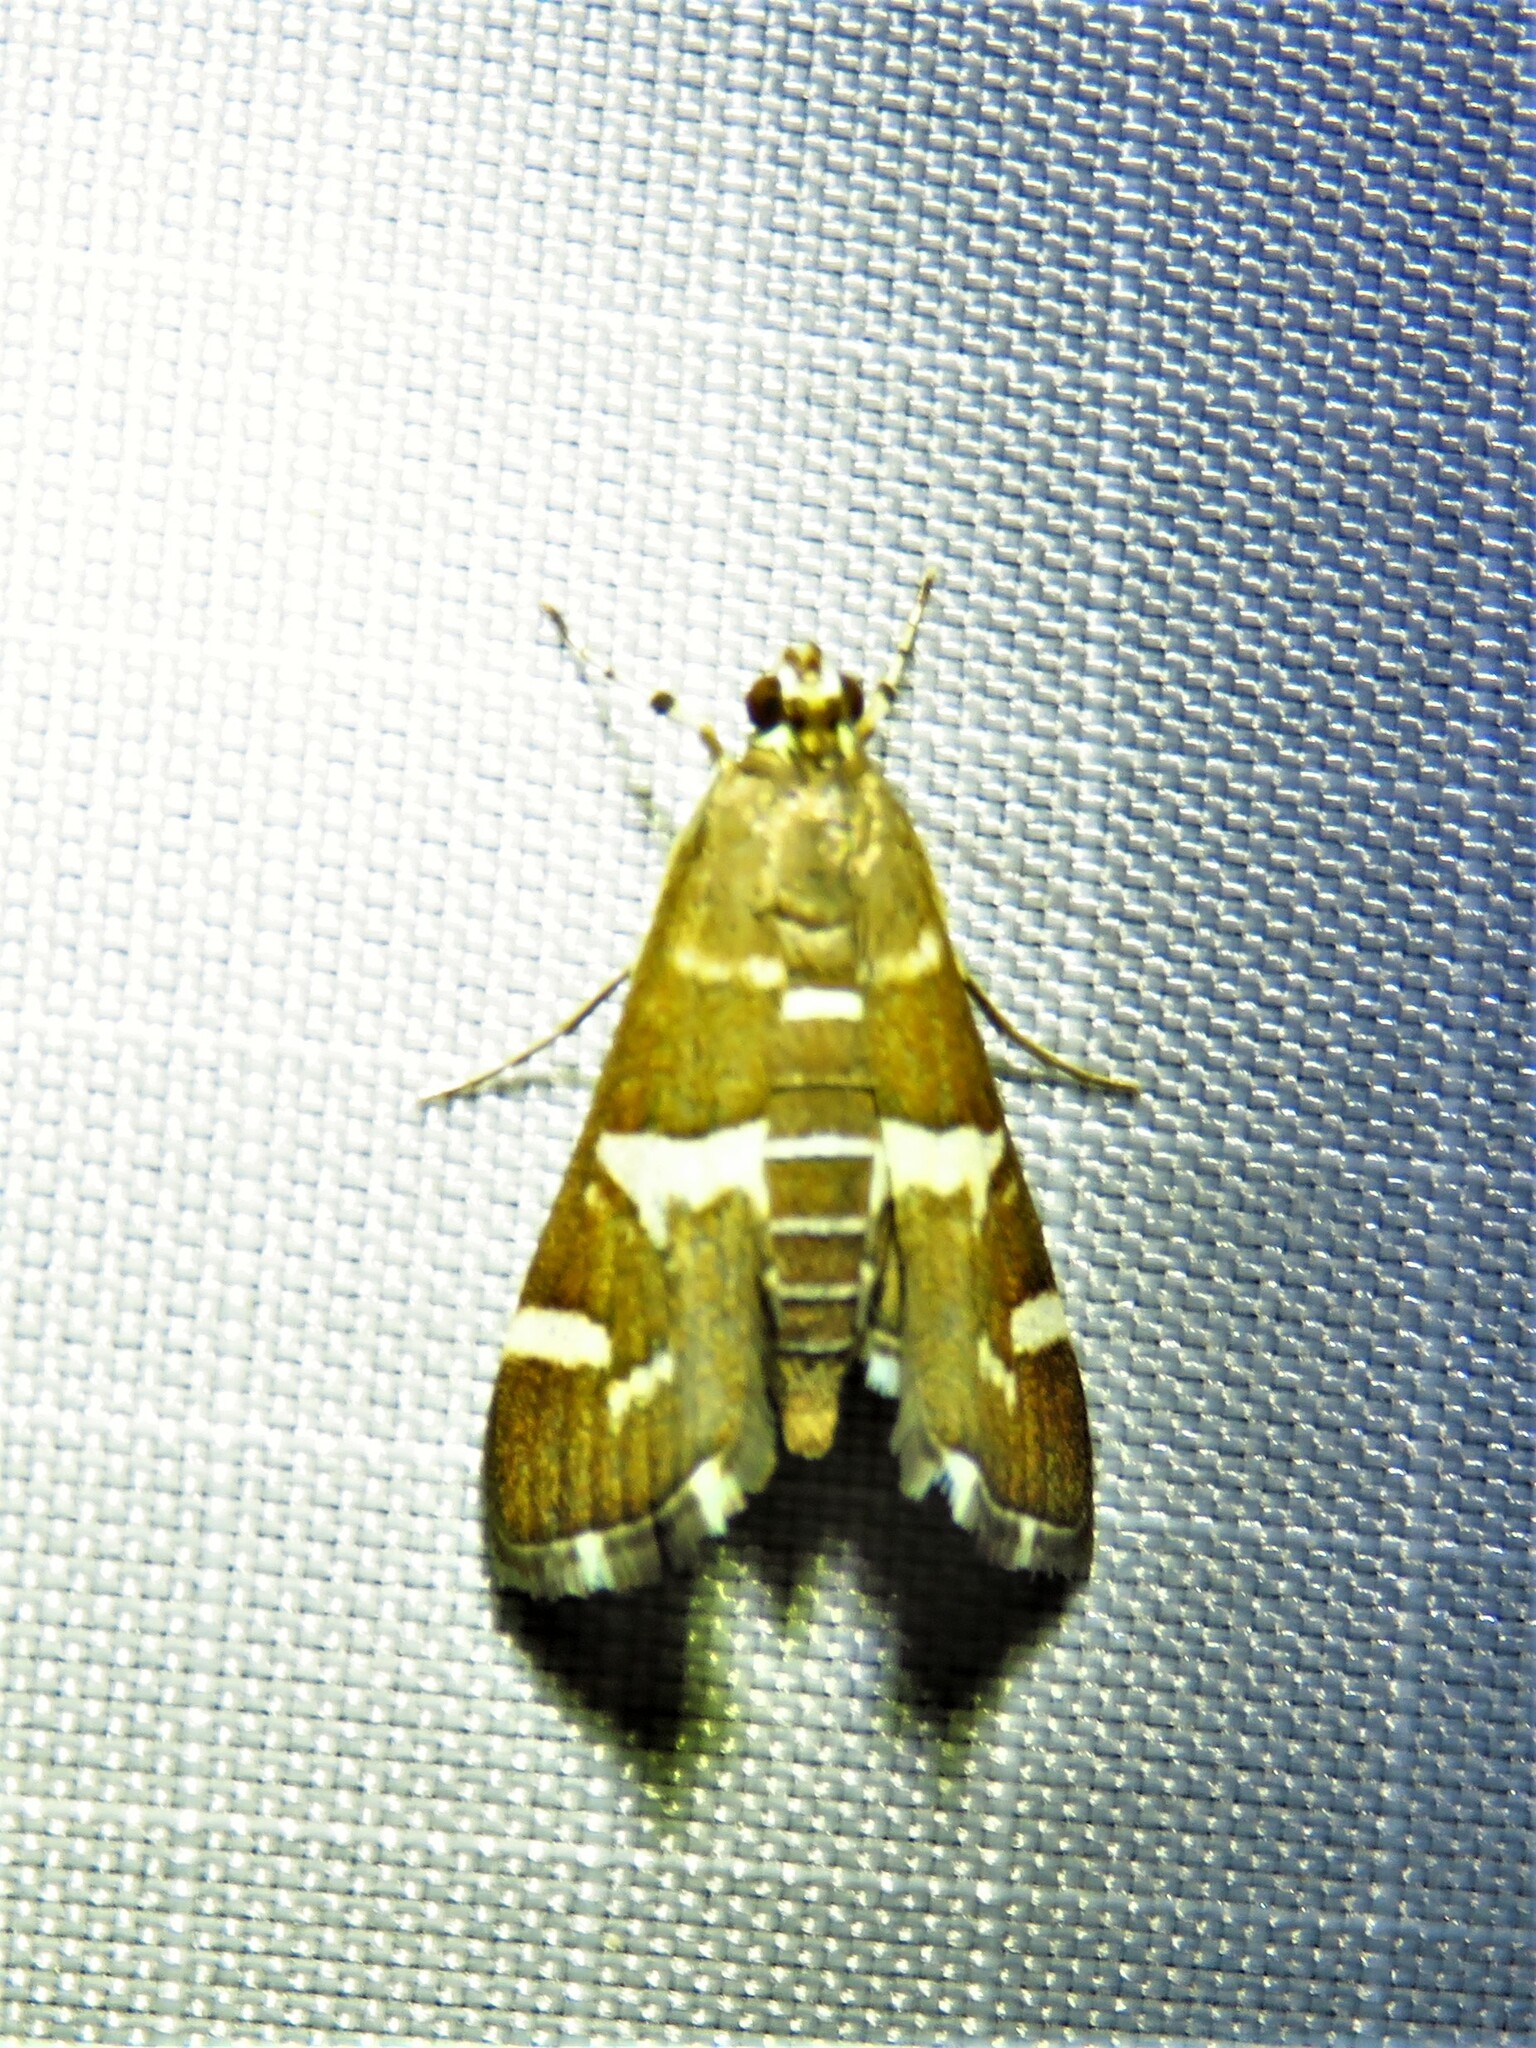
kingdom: Animalia
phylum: Arthropoda
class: Insecta
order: Lepidoptera
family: Crambidae
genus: Spoladea
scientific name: Spoladea recurvalis
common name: Beet webworm moth
